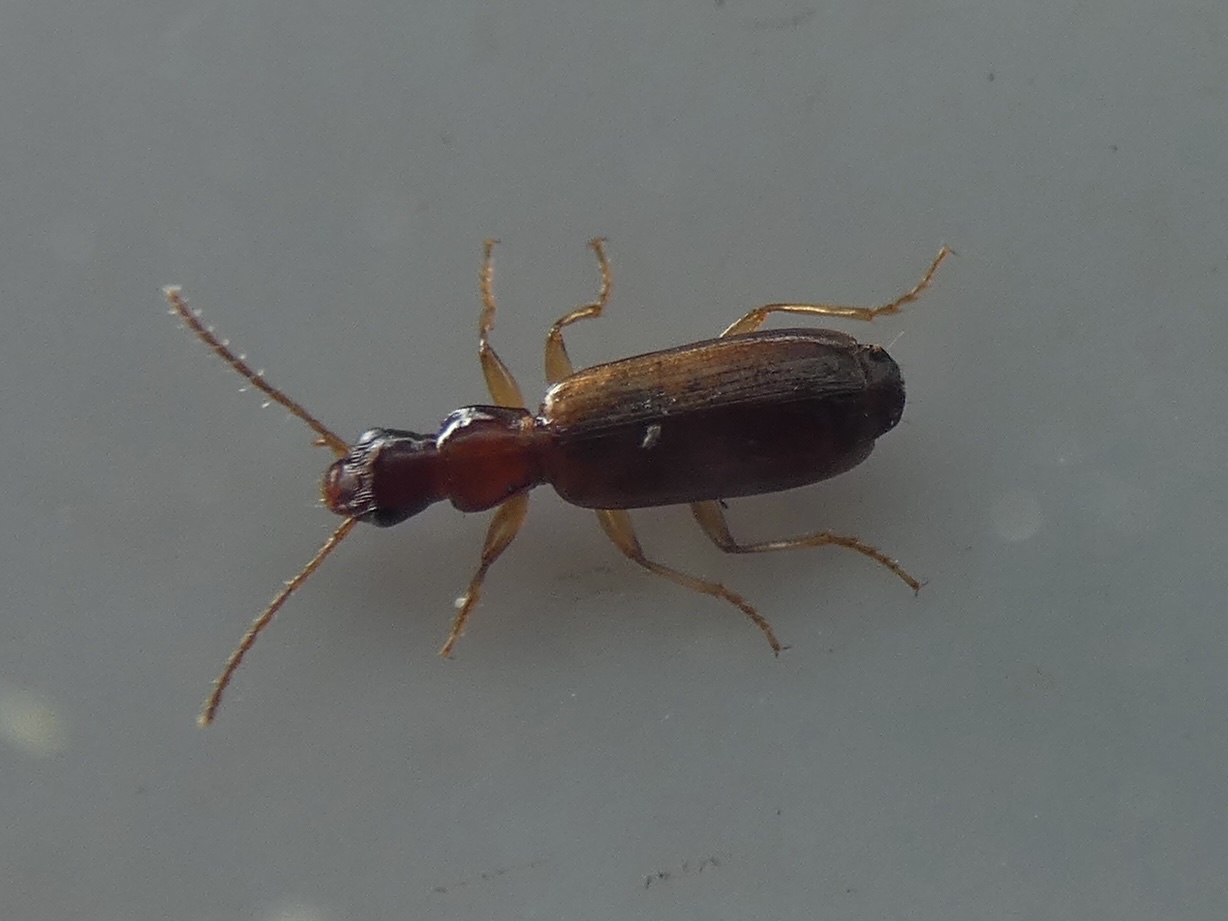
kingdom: Animalia
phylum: Arthropoda
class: Insecta
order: Coleoptera
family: Carabidae
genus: Paradromius
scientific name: Paradromius linearis
